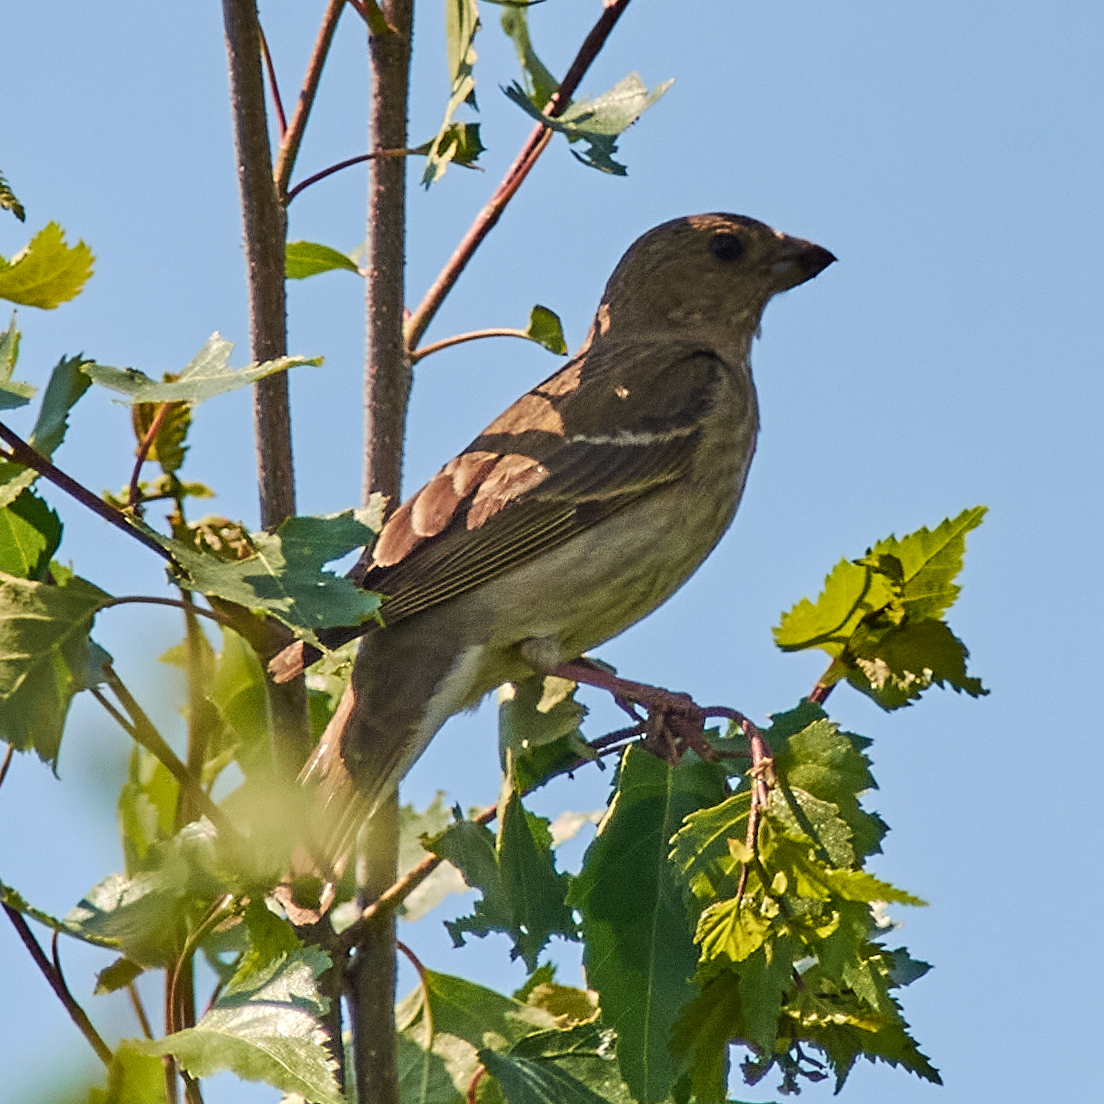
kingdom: Animalia
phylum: Chordata
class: Aves
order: Passeriformes
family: Fringillidae
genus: Carpodacus
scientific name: Carpodacus erythrinus
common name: Common rosefinch
